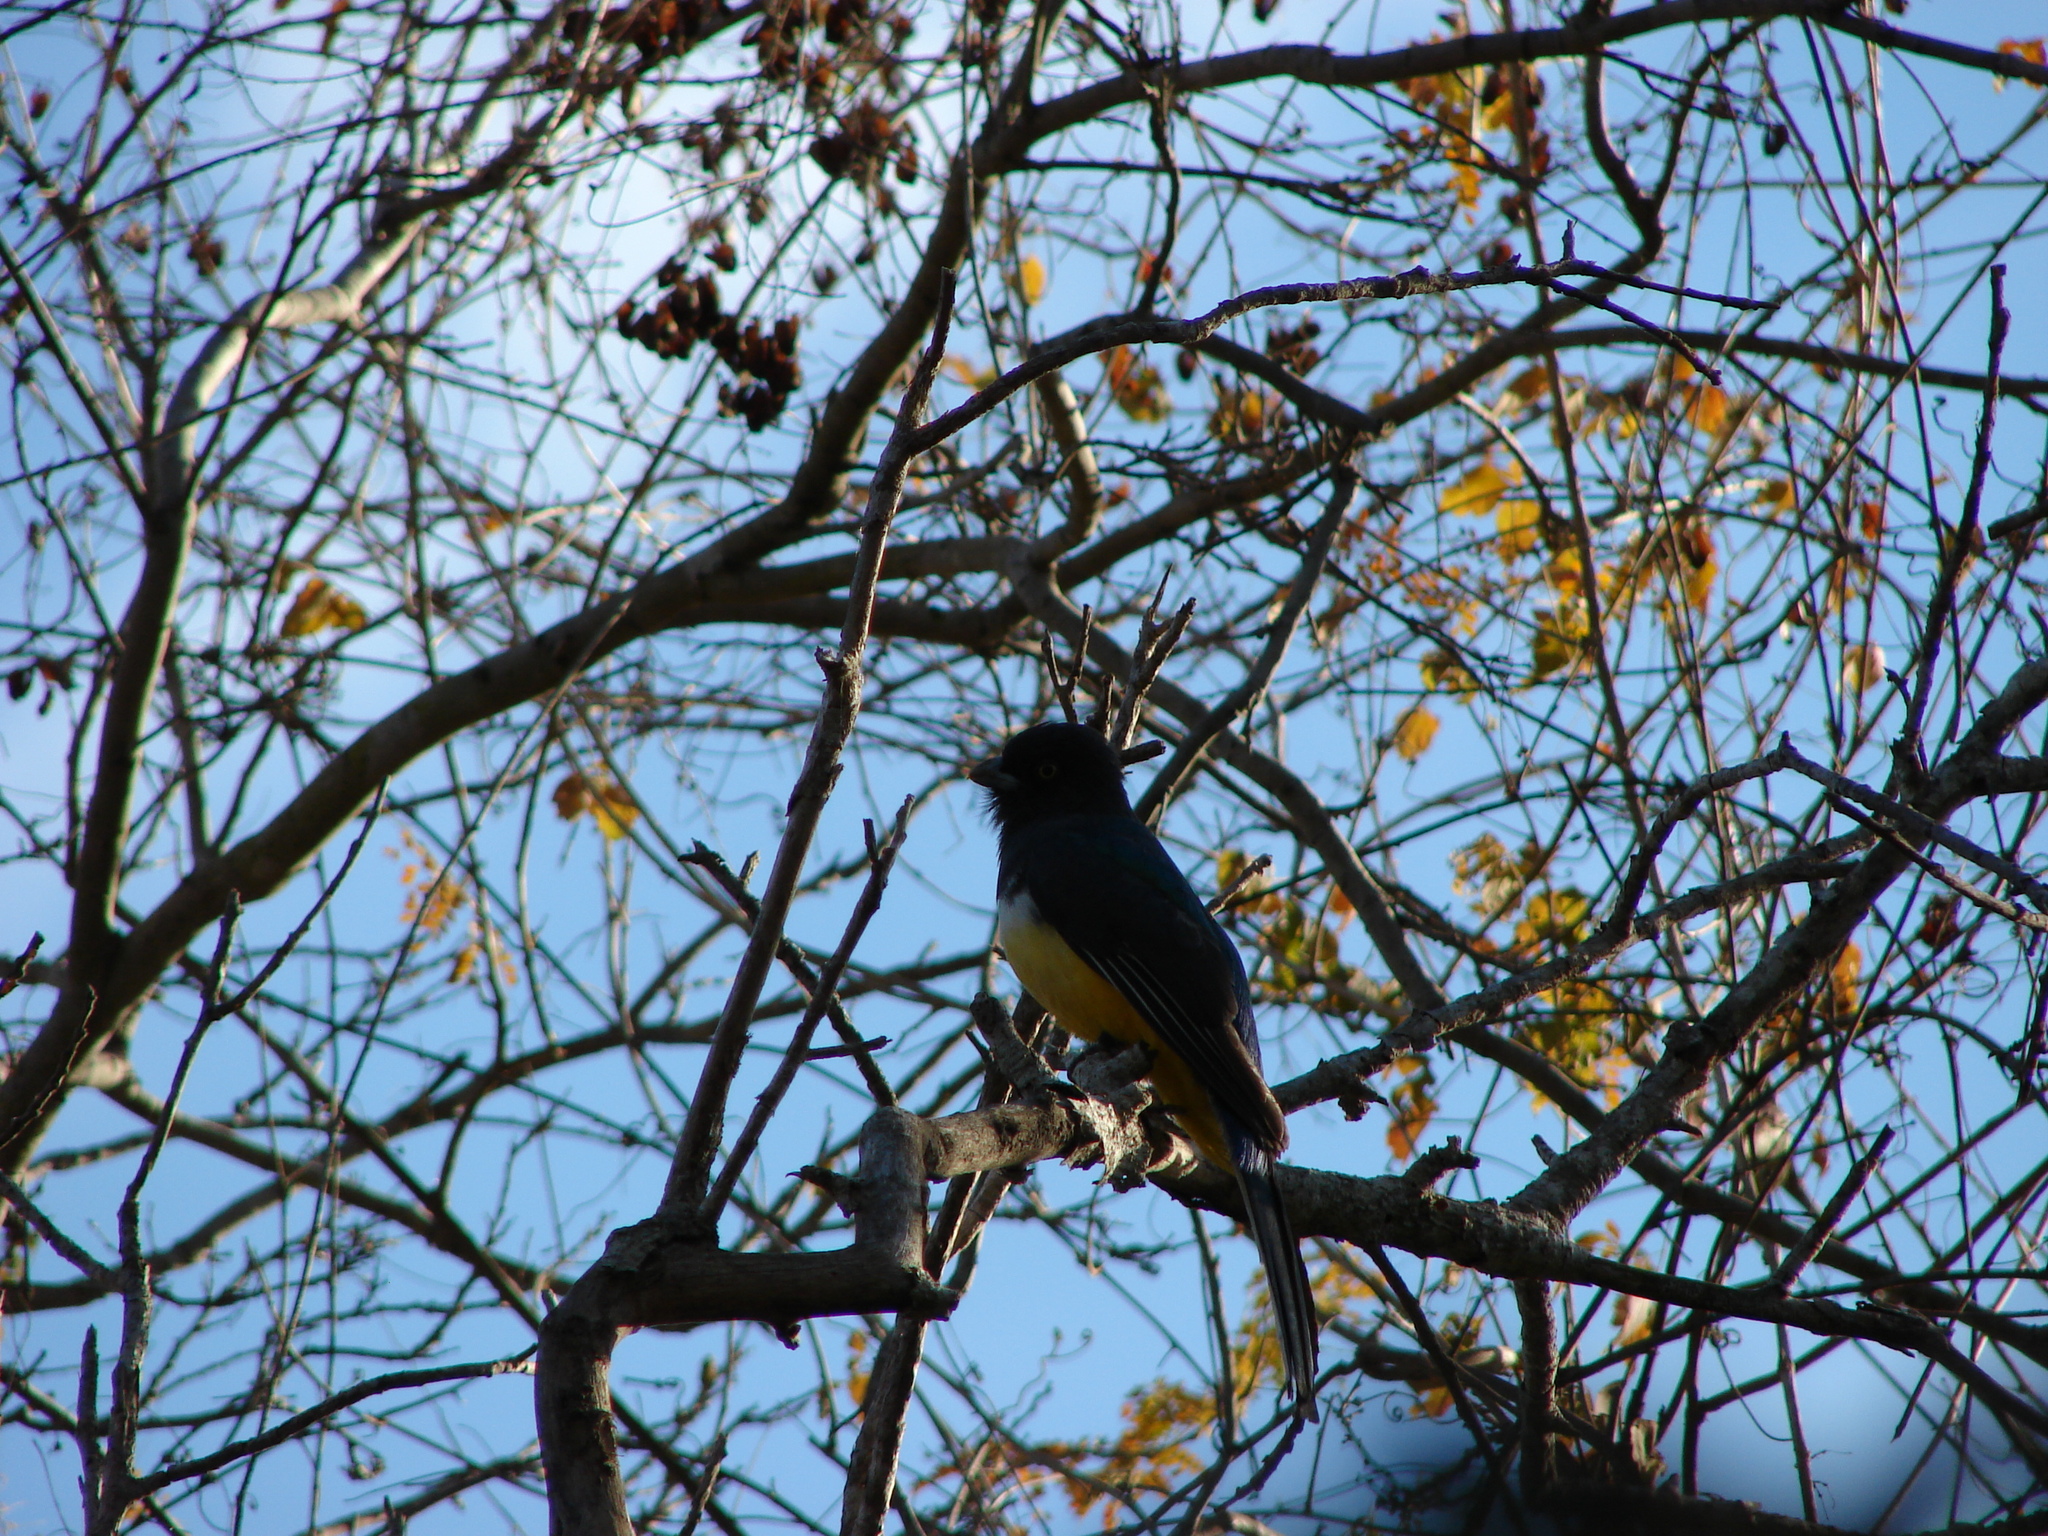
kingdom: Animalia
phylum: Chordata
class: Aves
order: Trogoniformes
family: Trogonidae
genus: Trogon
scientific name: Trogon citreolus
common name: Citreoline trogon
